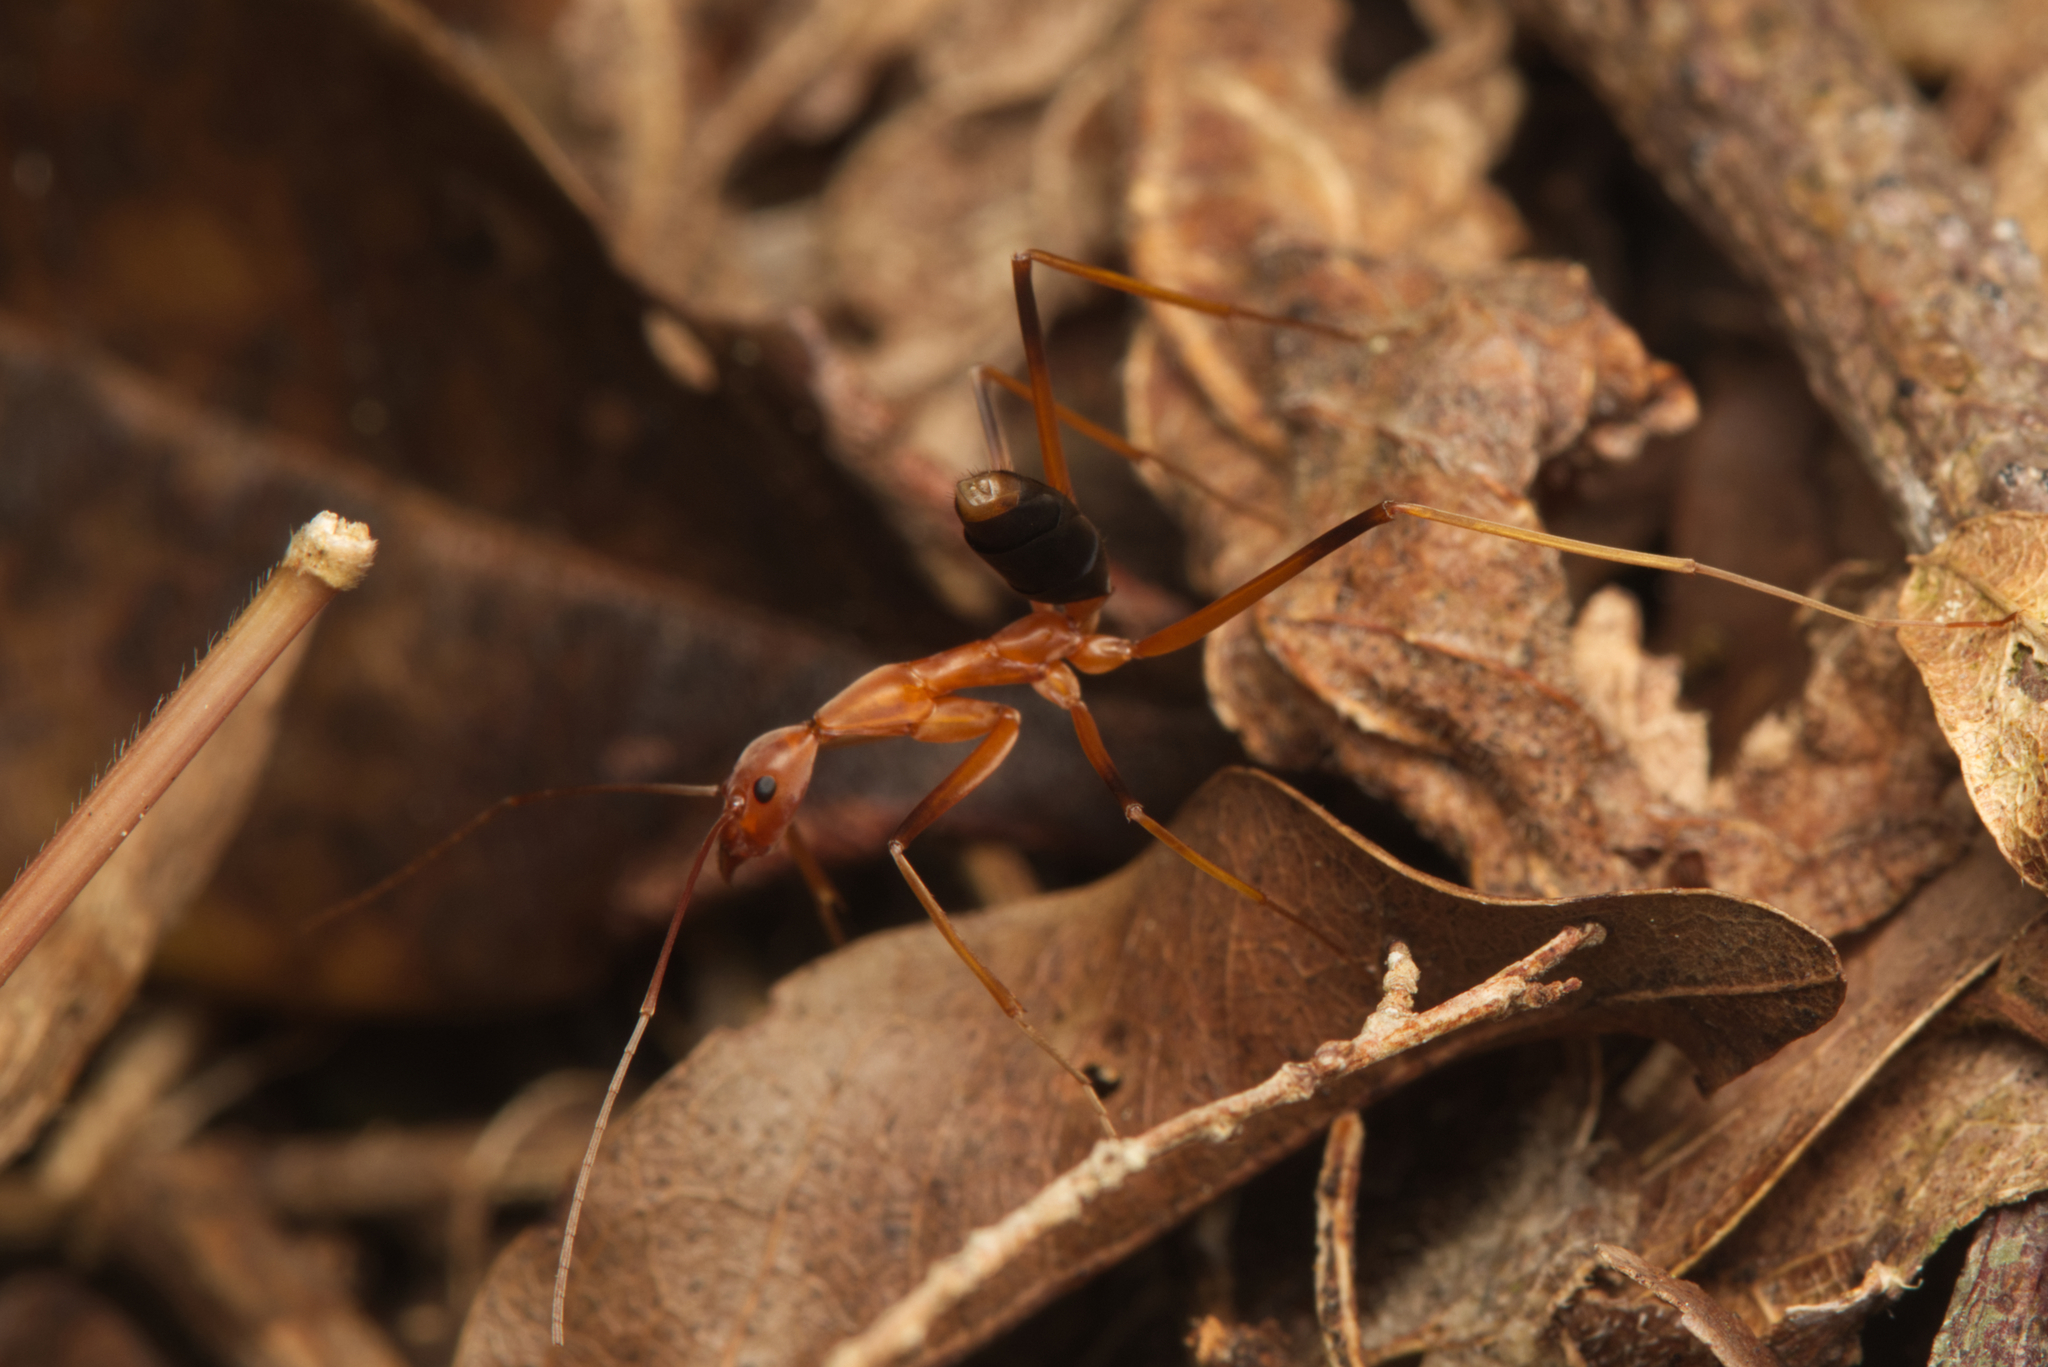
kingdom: Animalia
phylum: Arthropoda
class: Insecta
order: Hymenoptera
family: Formicidae
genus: Leptomyrmex
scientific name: Leptomyrmex rufipes
